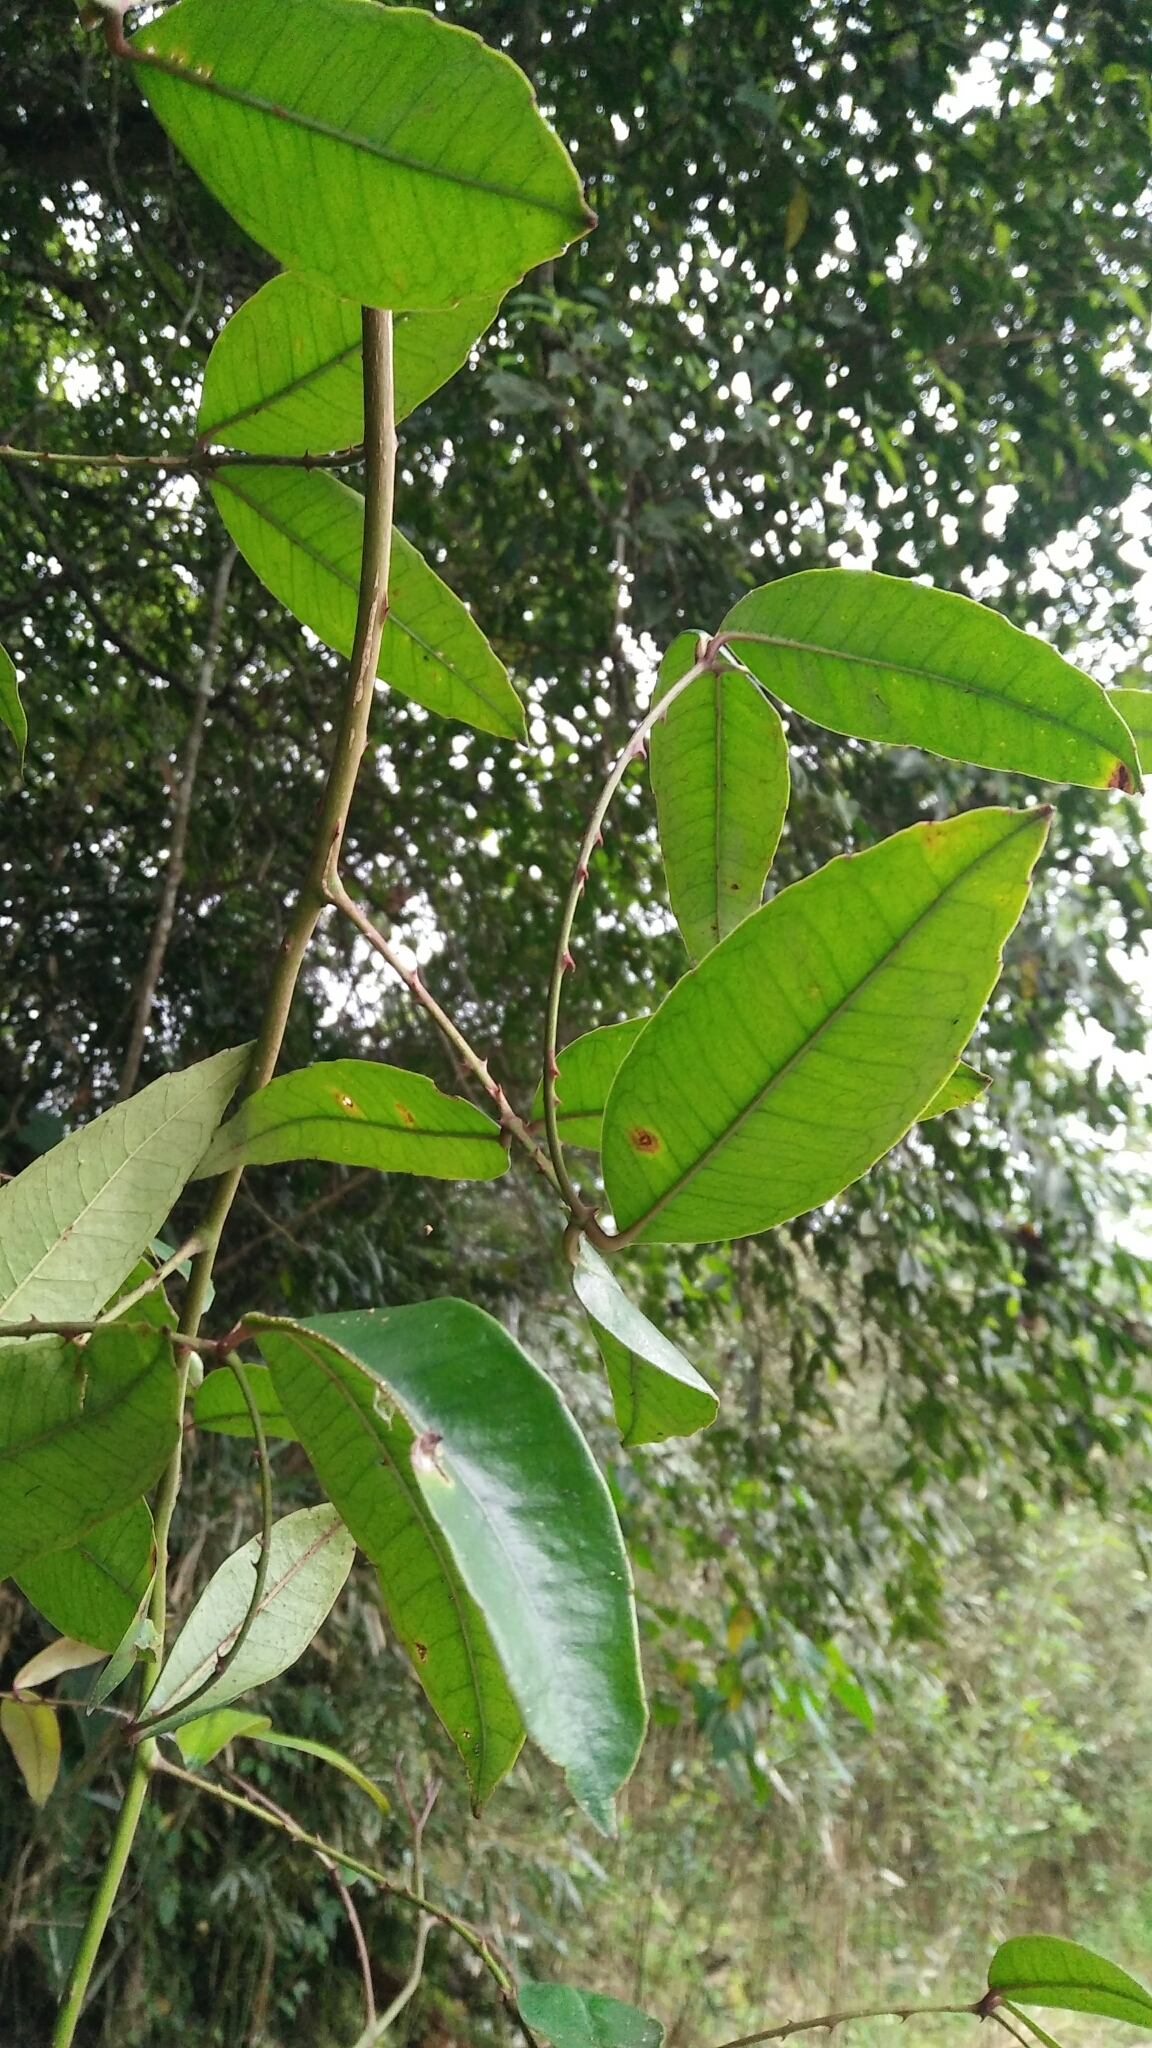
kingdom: Plantae
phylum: Tracheophyta
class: Magnoliopsida
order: Sapindales
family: Rutaceae
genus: Zanthoxylum
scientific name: Zanthoxylum nitidum
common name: Shiny-leaf prickly-ash
